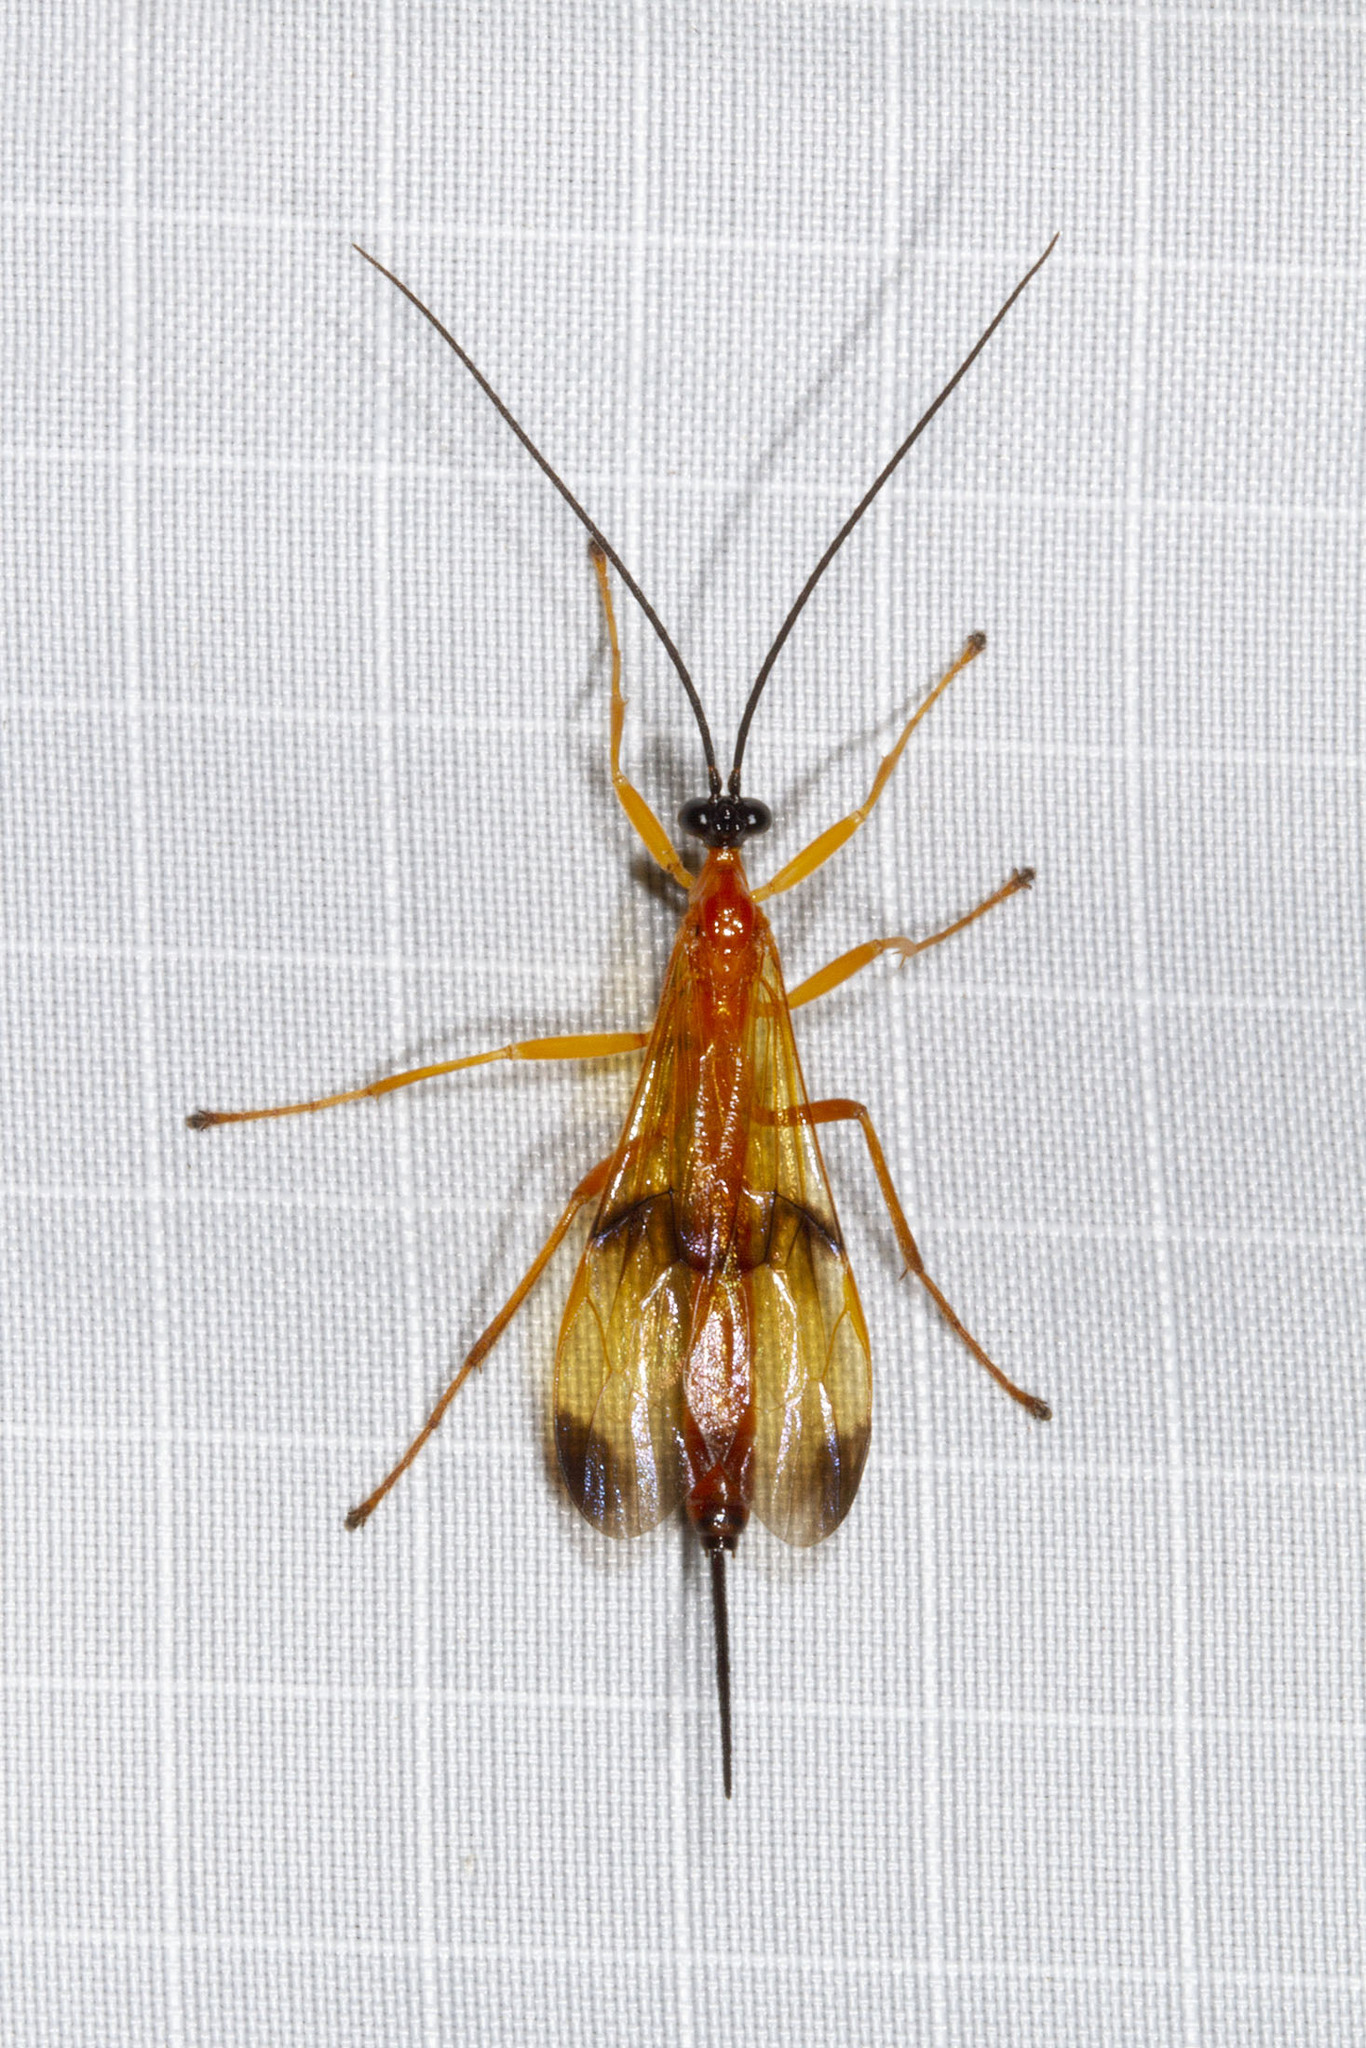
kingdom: Animalia
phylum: Arthropoda
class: Insecta
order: Hymenoptera
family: Ichneumonidae
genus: Acrotaphus
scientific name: Acrotaphus wiltii
